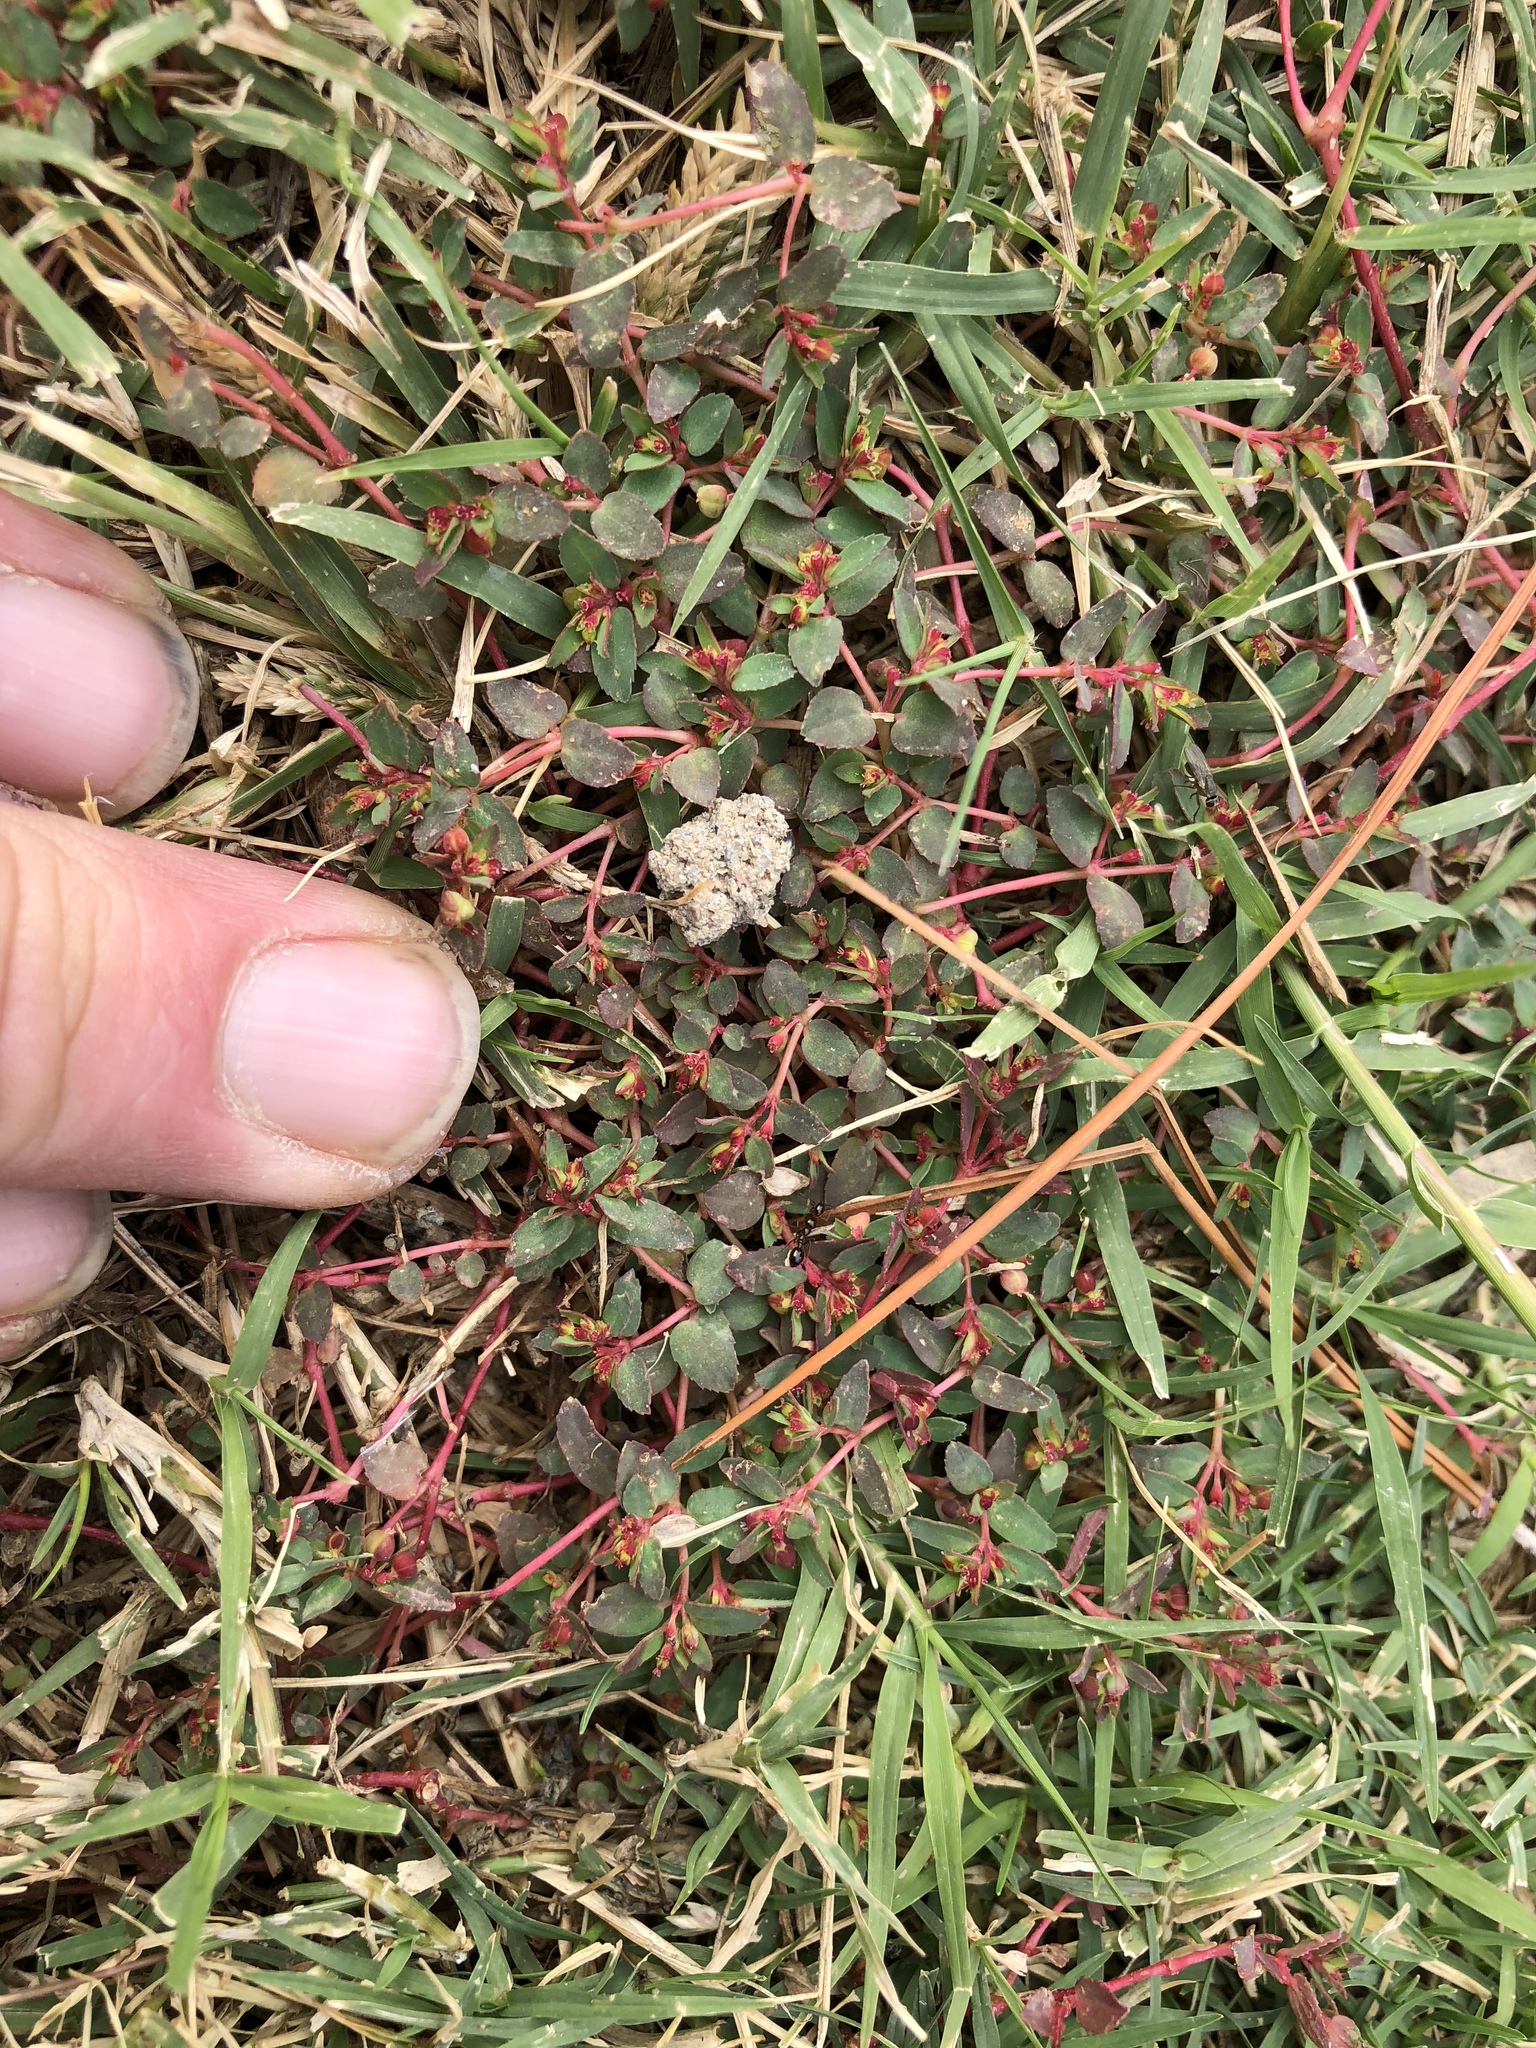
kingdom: Plantae
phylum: Tracheophyta
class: Magnoliopsida
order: Malpighiales
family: Euphorbiaceae
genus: Euphorbia
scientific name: Euphorbia vermiculata
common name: Hairy spurge
